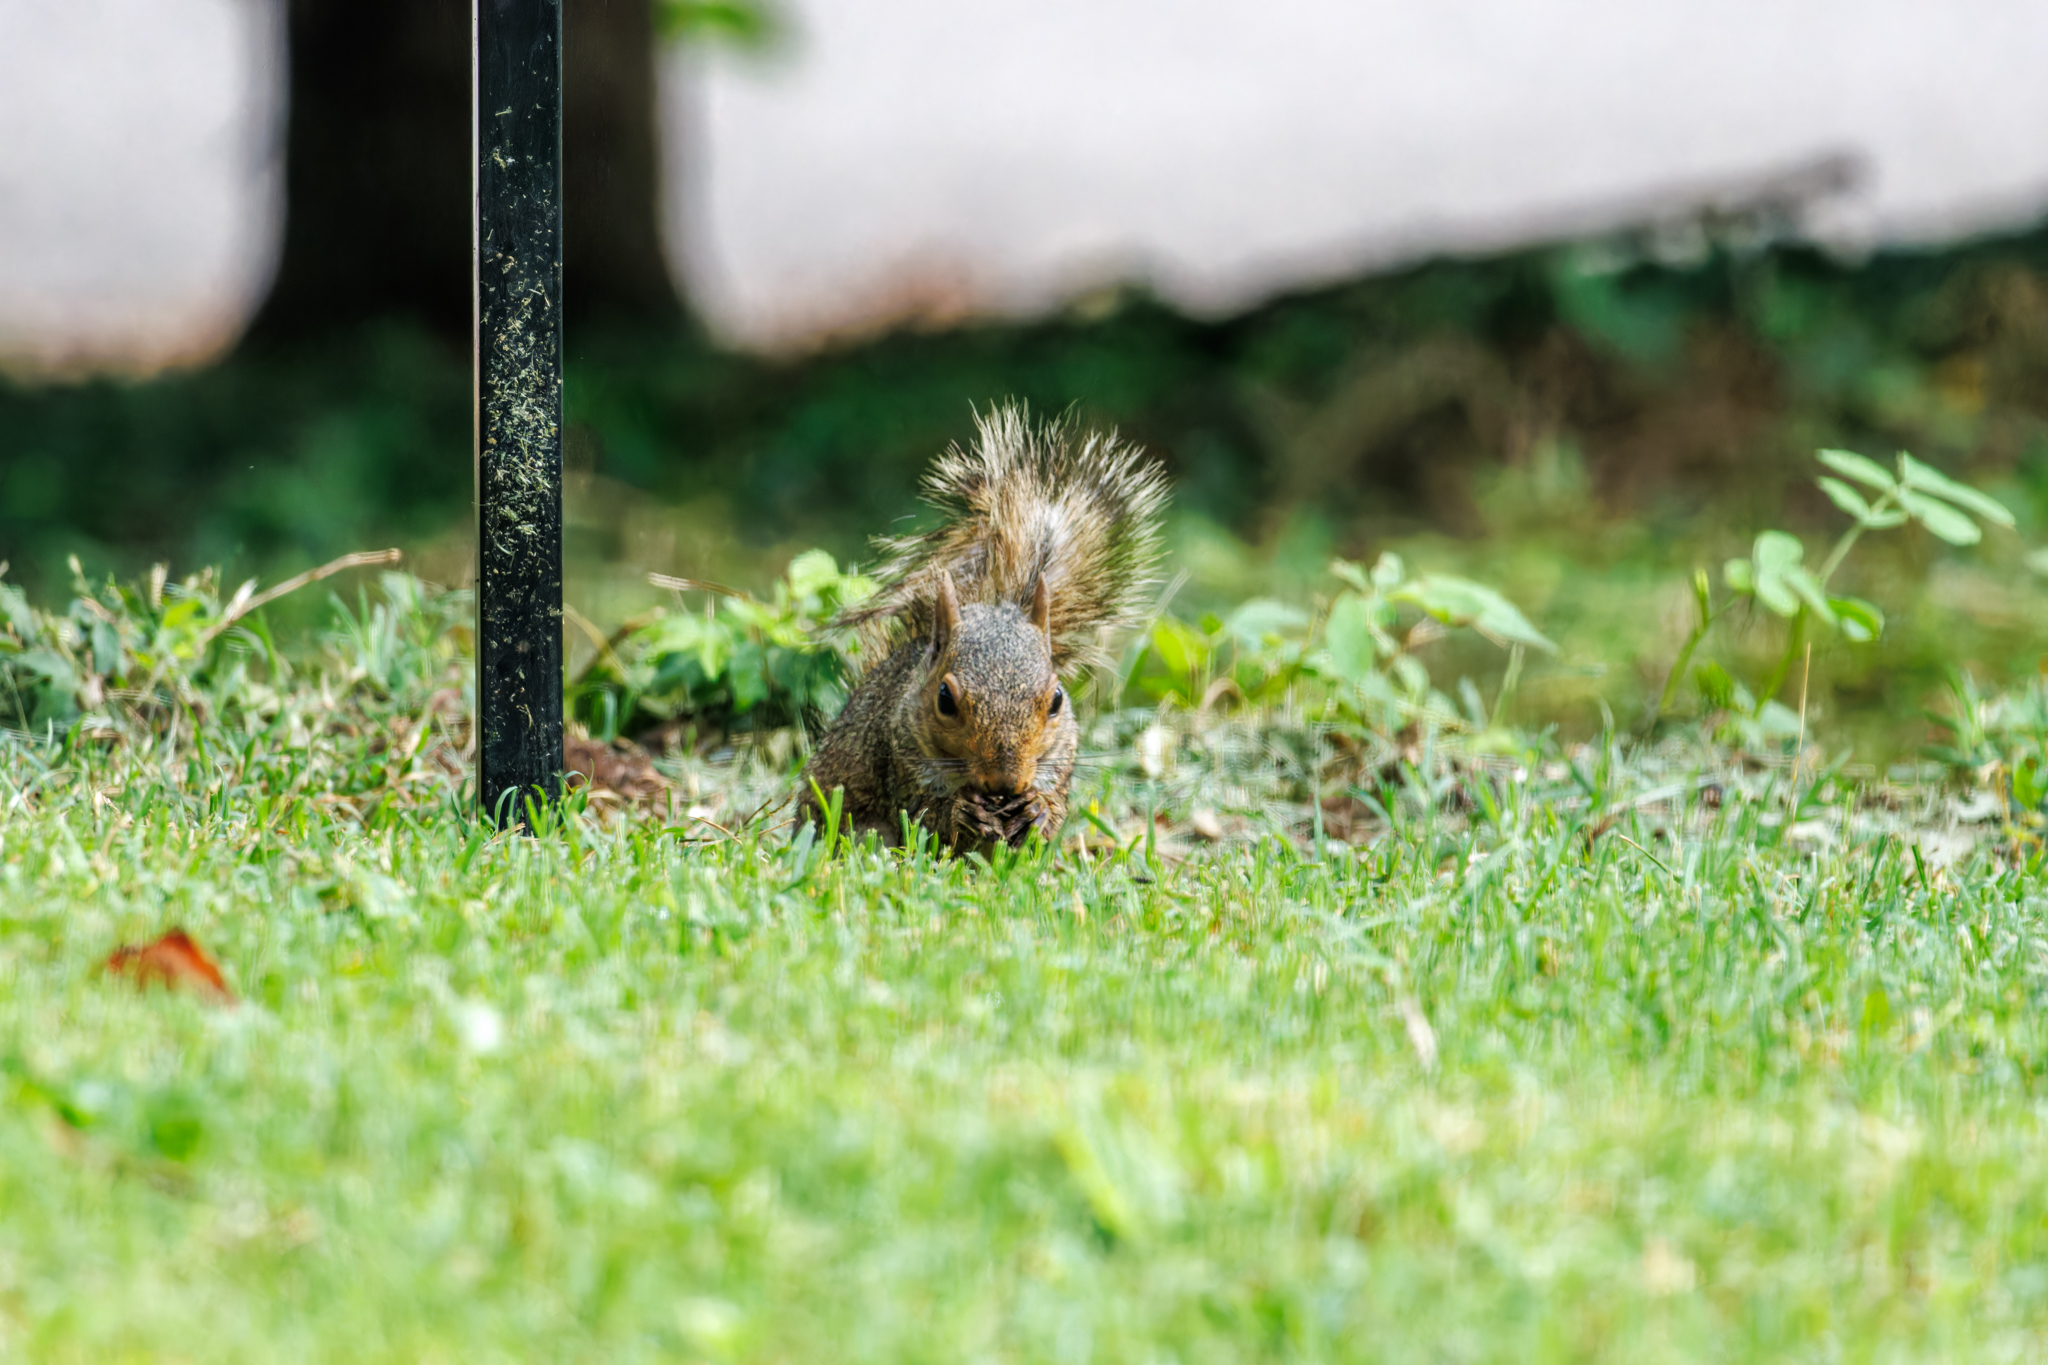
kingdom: Animalia
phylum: Chordata
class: Mammalia
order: Rodentia
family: Sciuridae
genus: Sciurus
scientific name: Sciurus carolinensis
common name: Eastern gray squirrel
